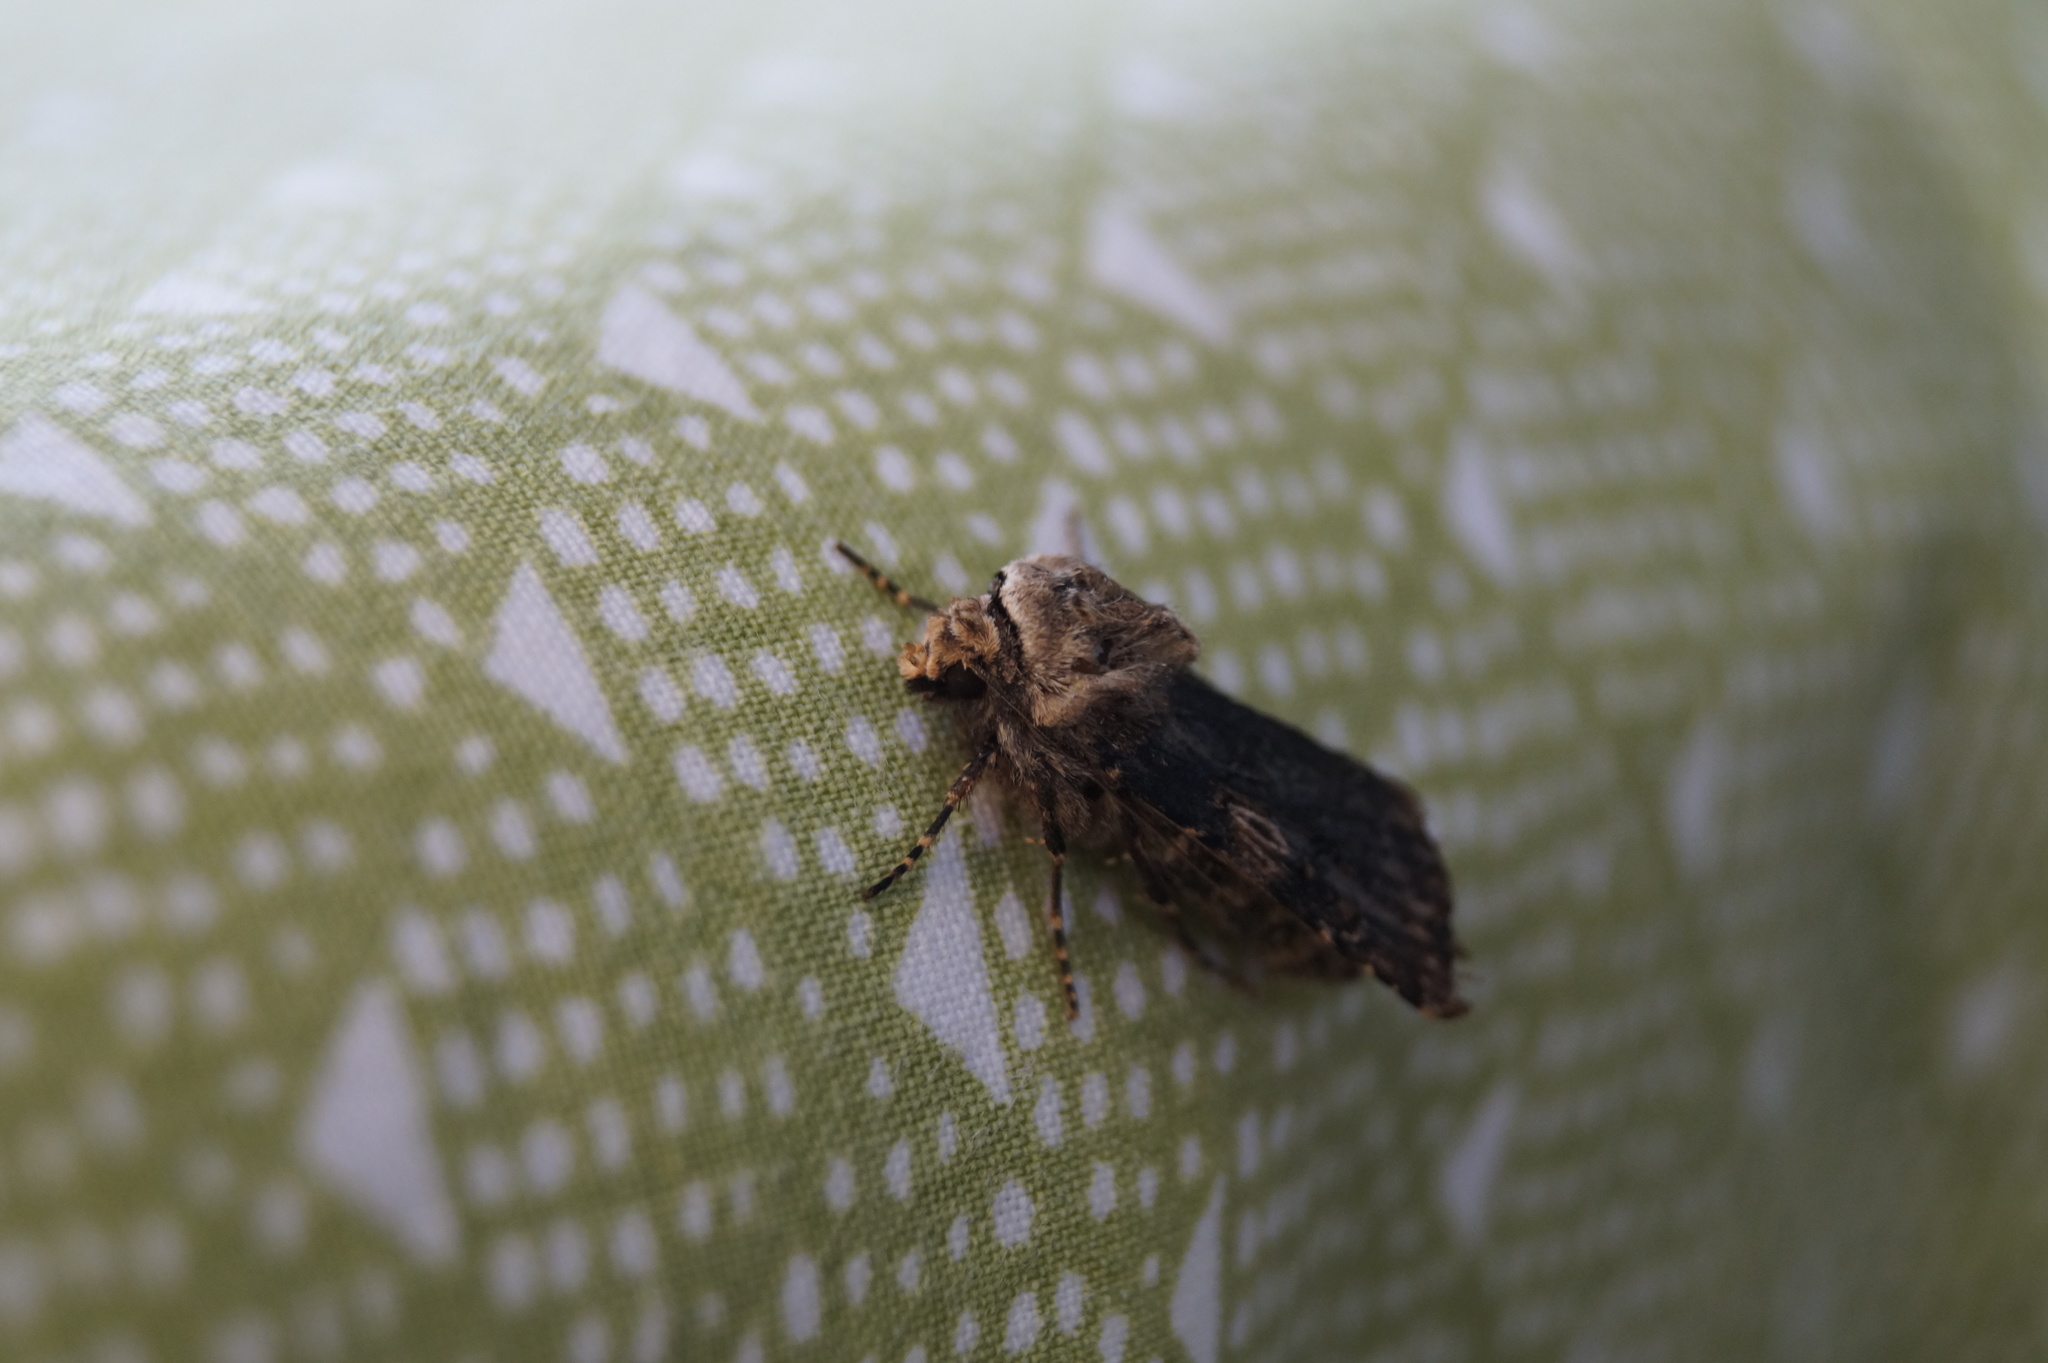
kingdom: Animalia
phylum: Arthropoda
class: Insecta
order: Lepidoptera
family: Noctuidae
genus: Agrotis
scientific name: Agrotis puta
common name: Shuttle-shaped dart
